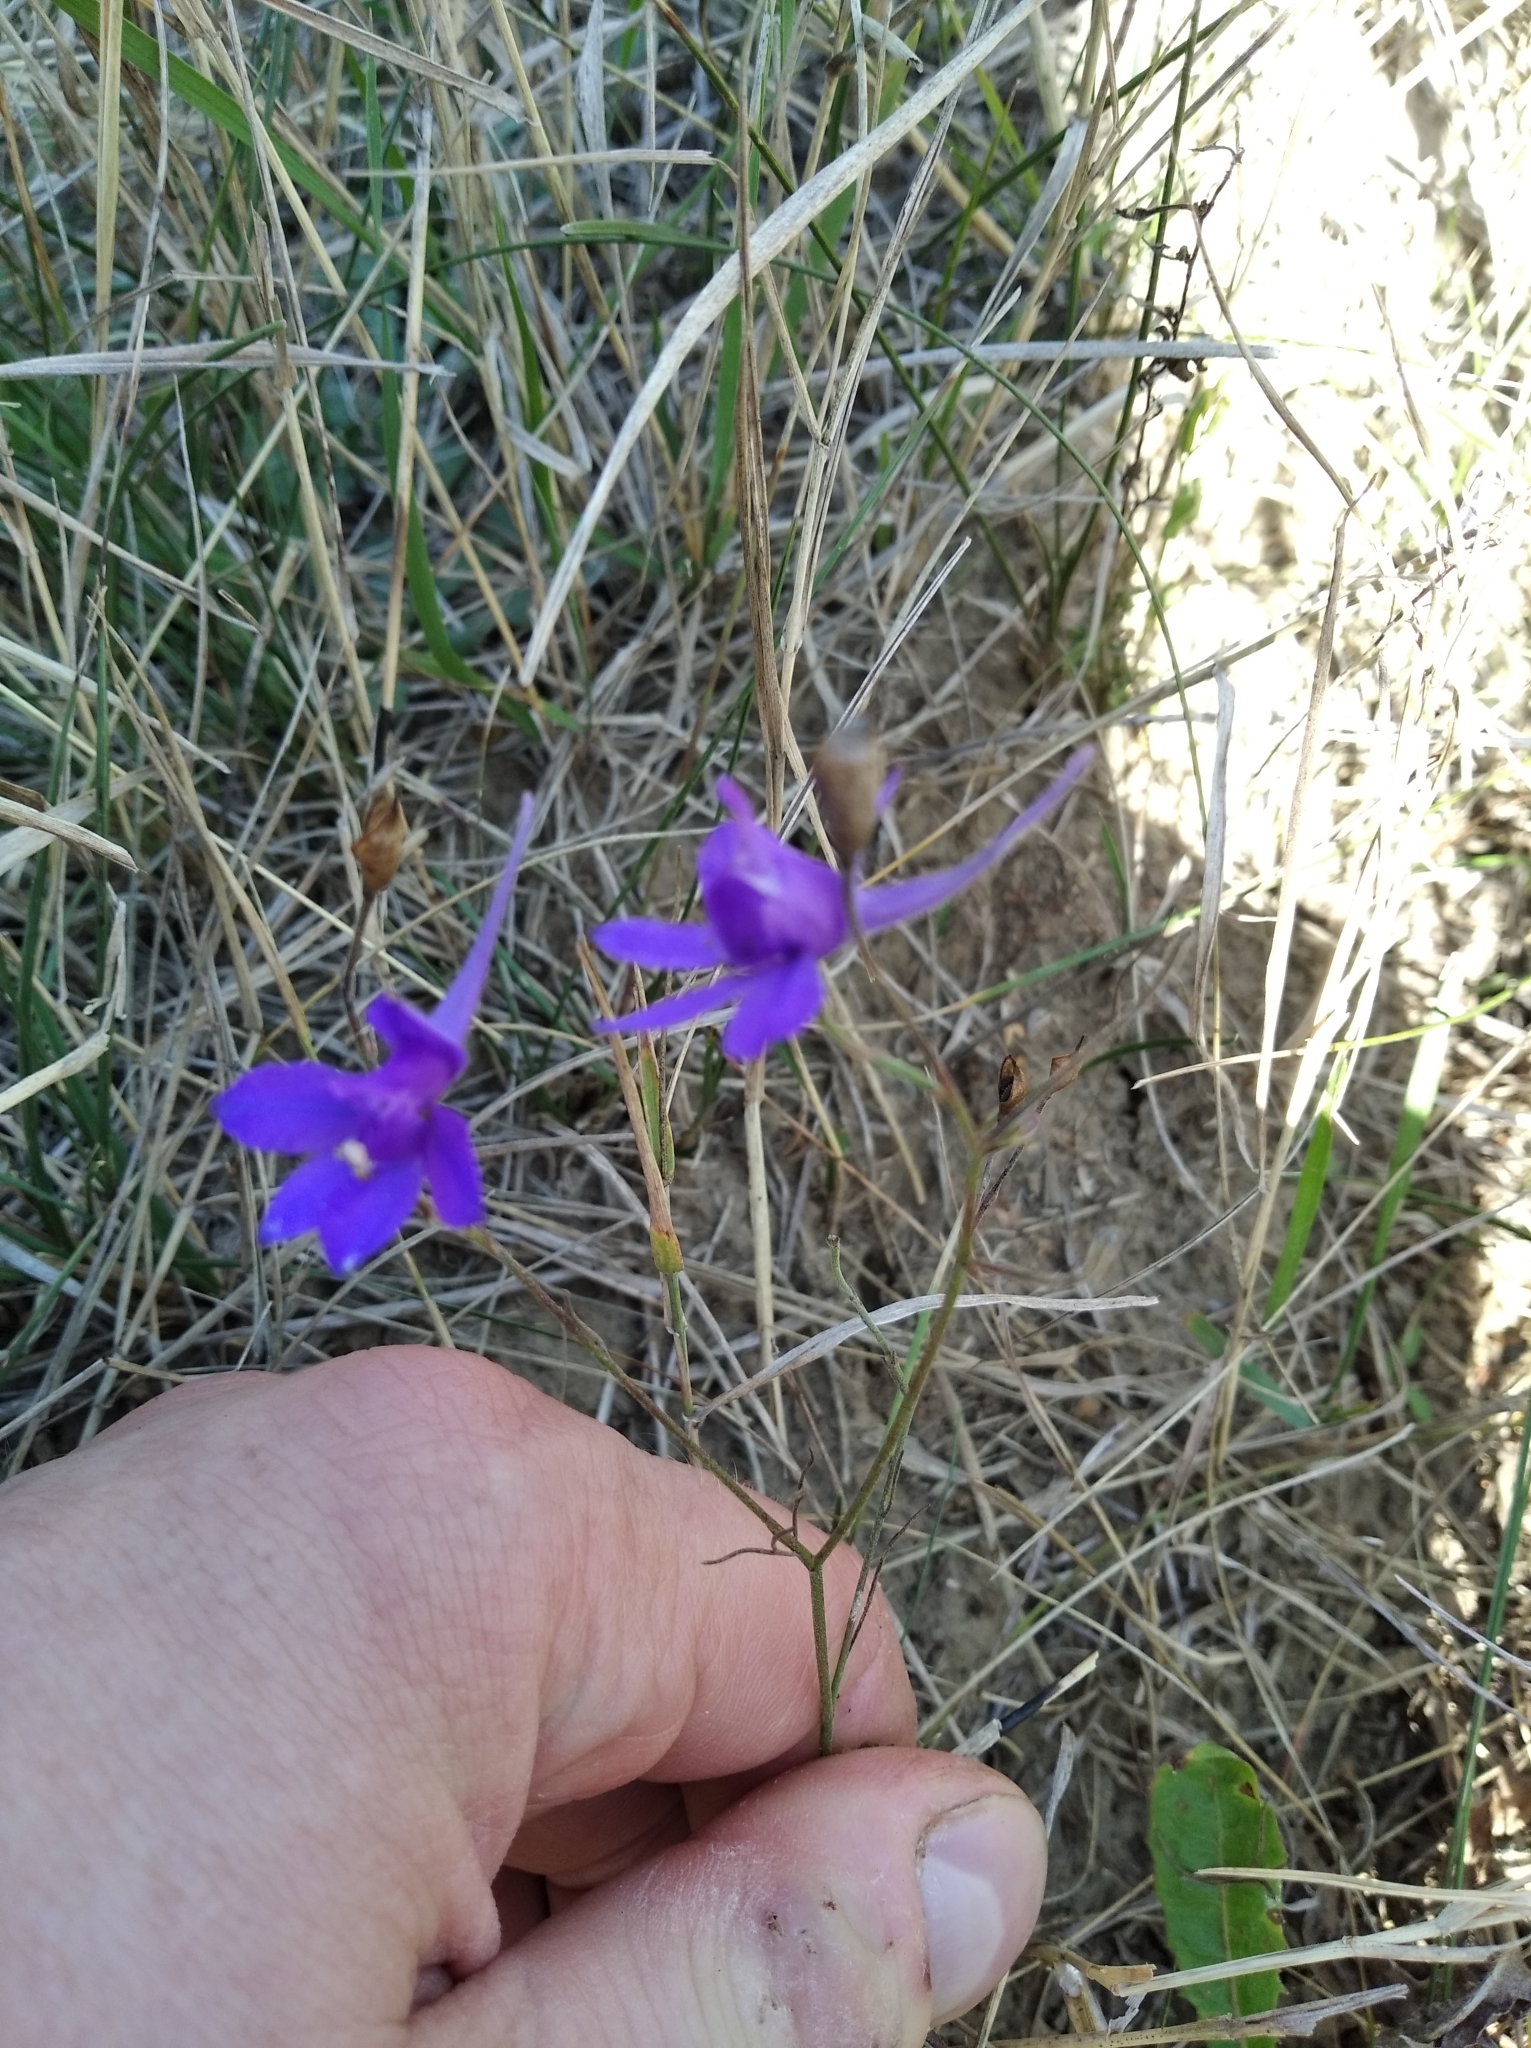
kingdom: Plantae
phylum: Tracheophyta
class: Magnoliopsida
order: Ranunculales
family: Ranunculaceae
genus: Delphinium
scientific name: Delphinium consolida
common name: Branching larkspur
